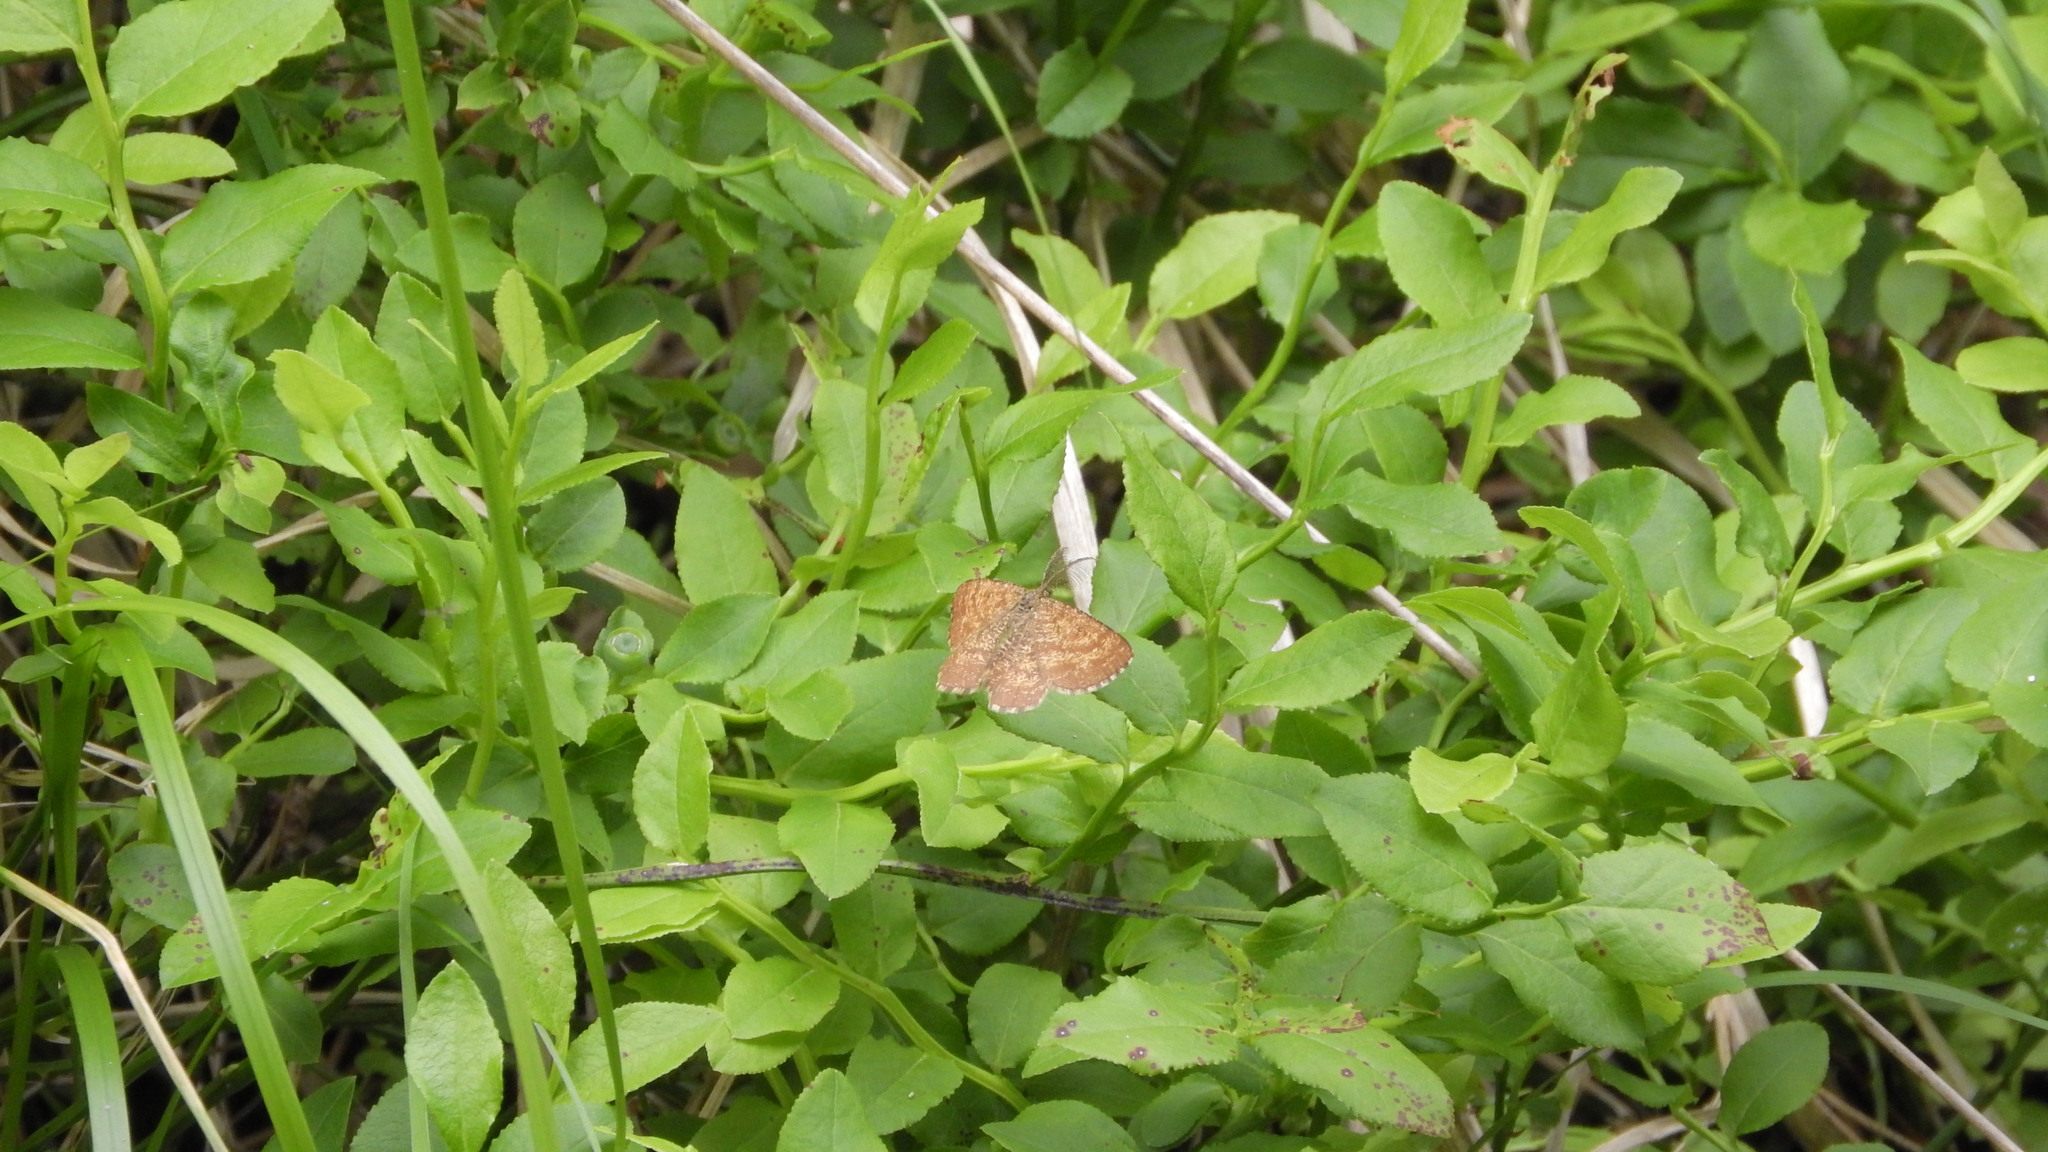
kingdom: Animalia
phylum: Arthropoda
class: Insecta
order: Lepidoptera
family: Geometridae
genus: Ematurga
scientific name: Ematurga atomaria
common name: Common heath
